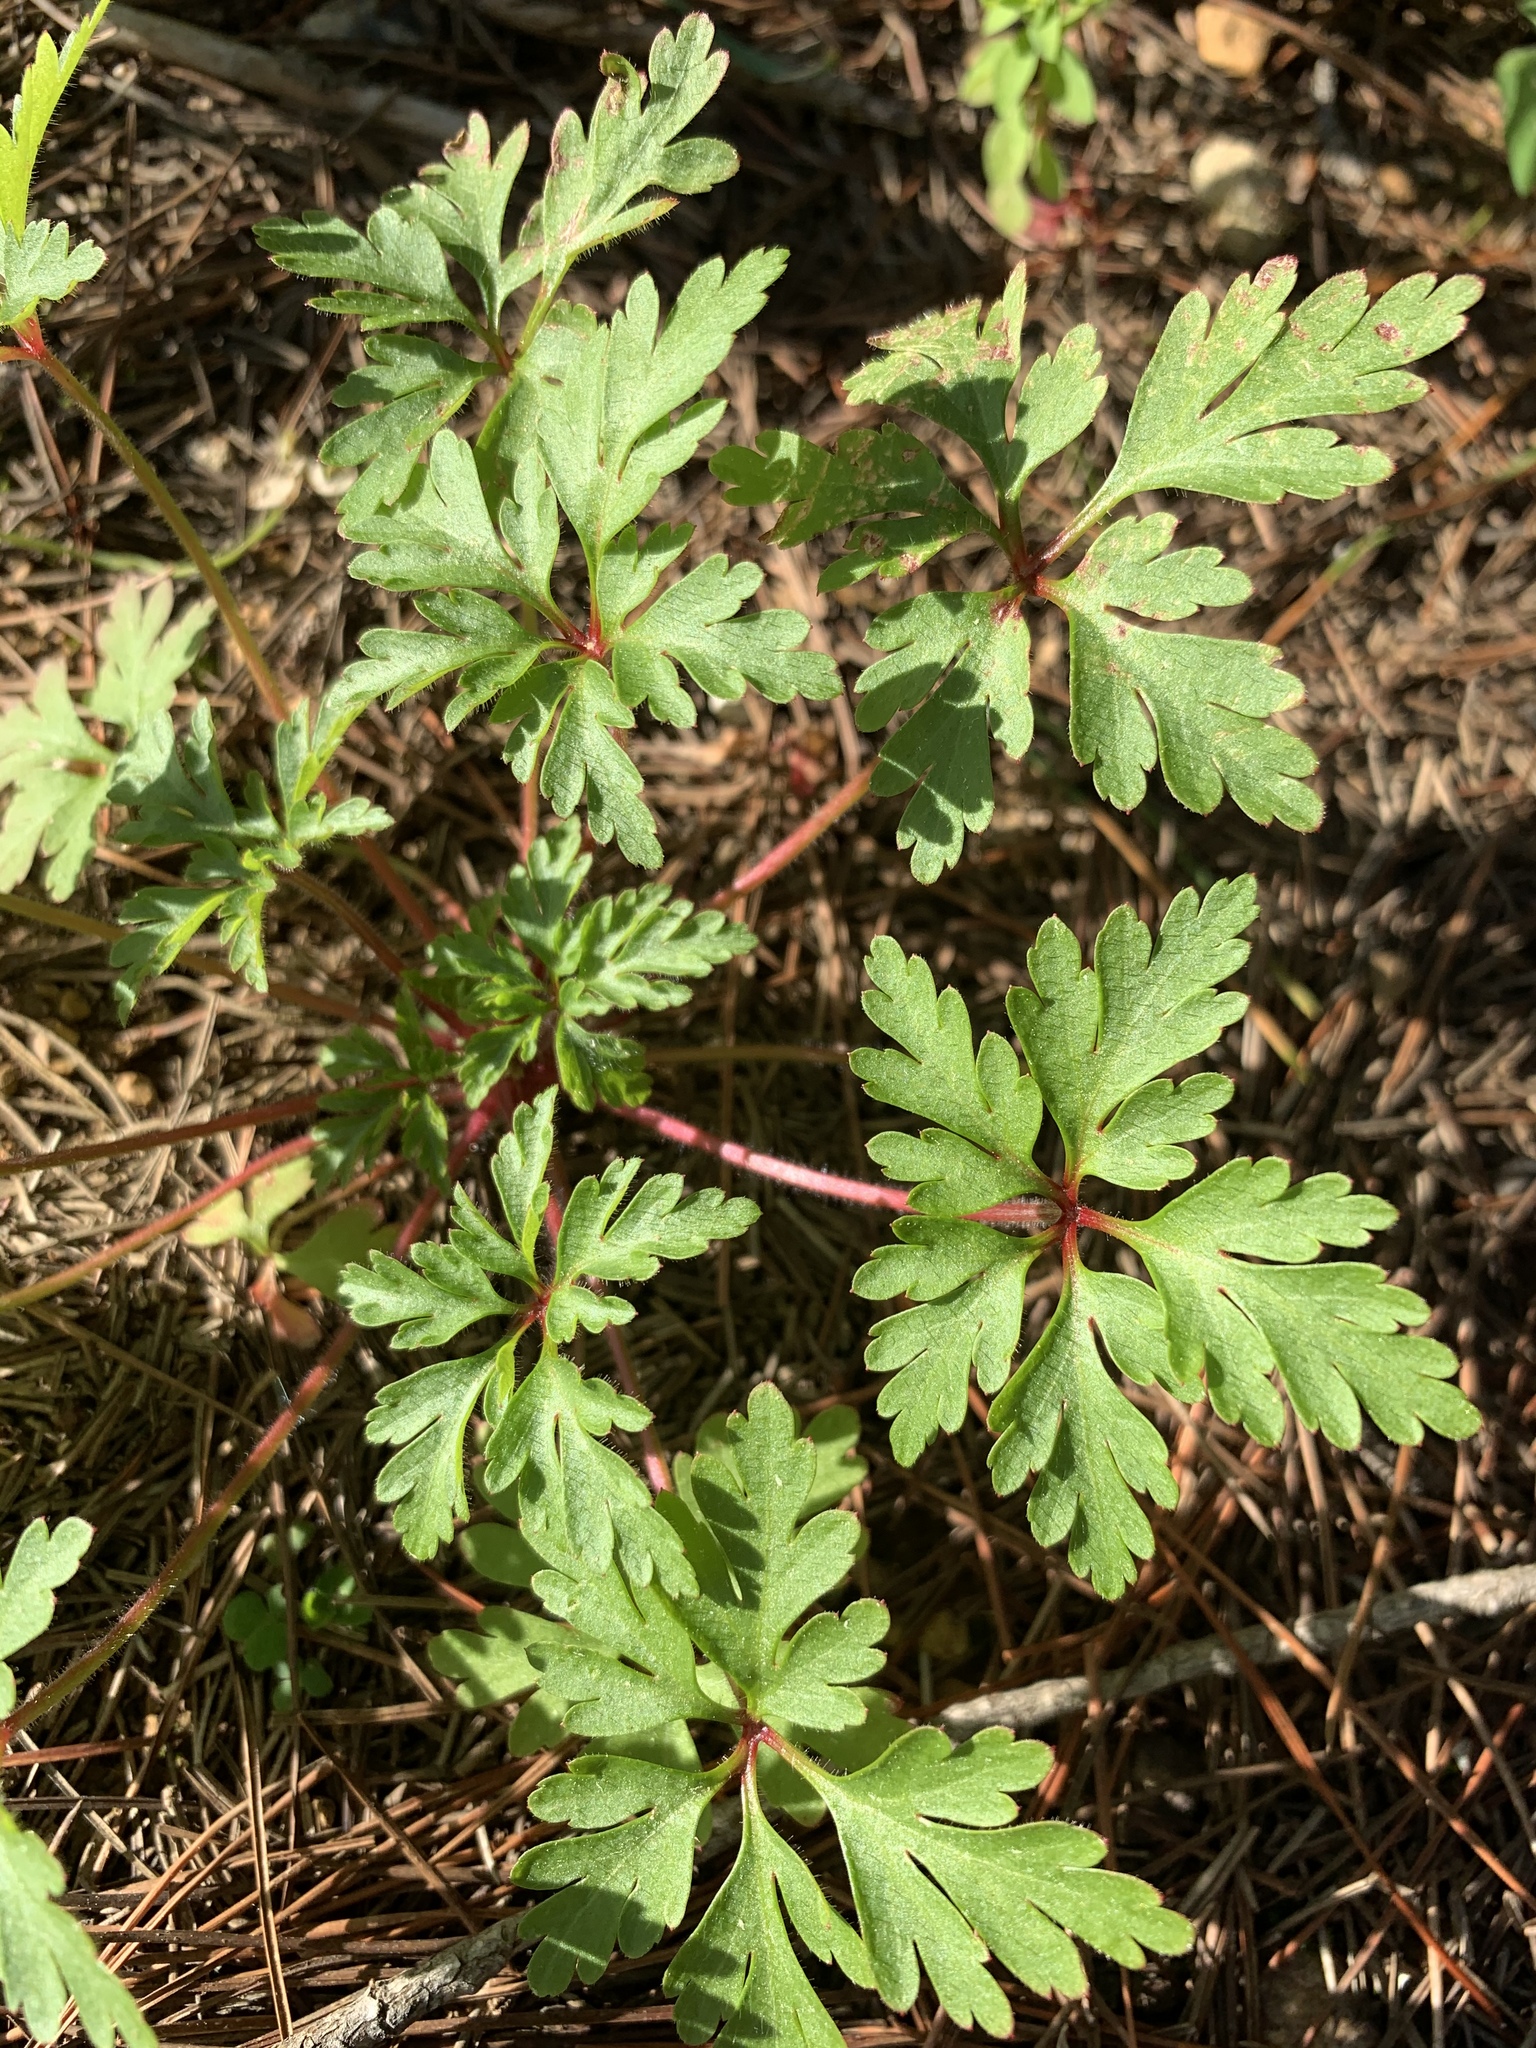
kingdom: Plantae
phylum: Tracheophyta
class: Magnoliopsida
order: Geraniales
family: Geraniaceae
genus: Geranium
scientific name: Geranium purpureum
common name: Little-robin
